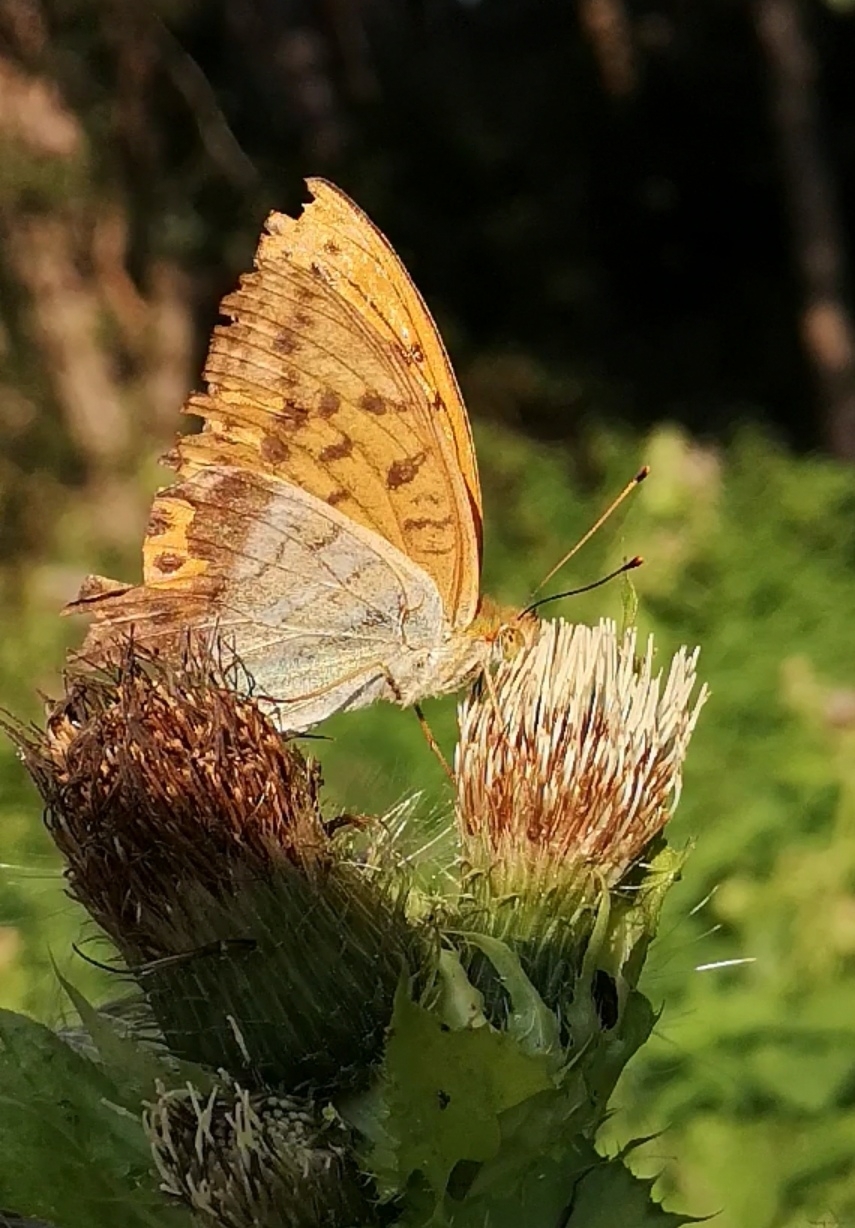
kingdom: Animalia
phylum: Arthropoda
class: Insecta
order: Lepidoptera
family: Nymphalidae
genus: Argynnis
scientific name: Argynnis paphia
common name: Silver-washed fritillary
